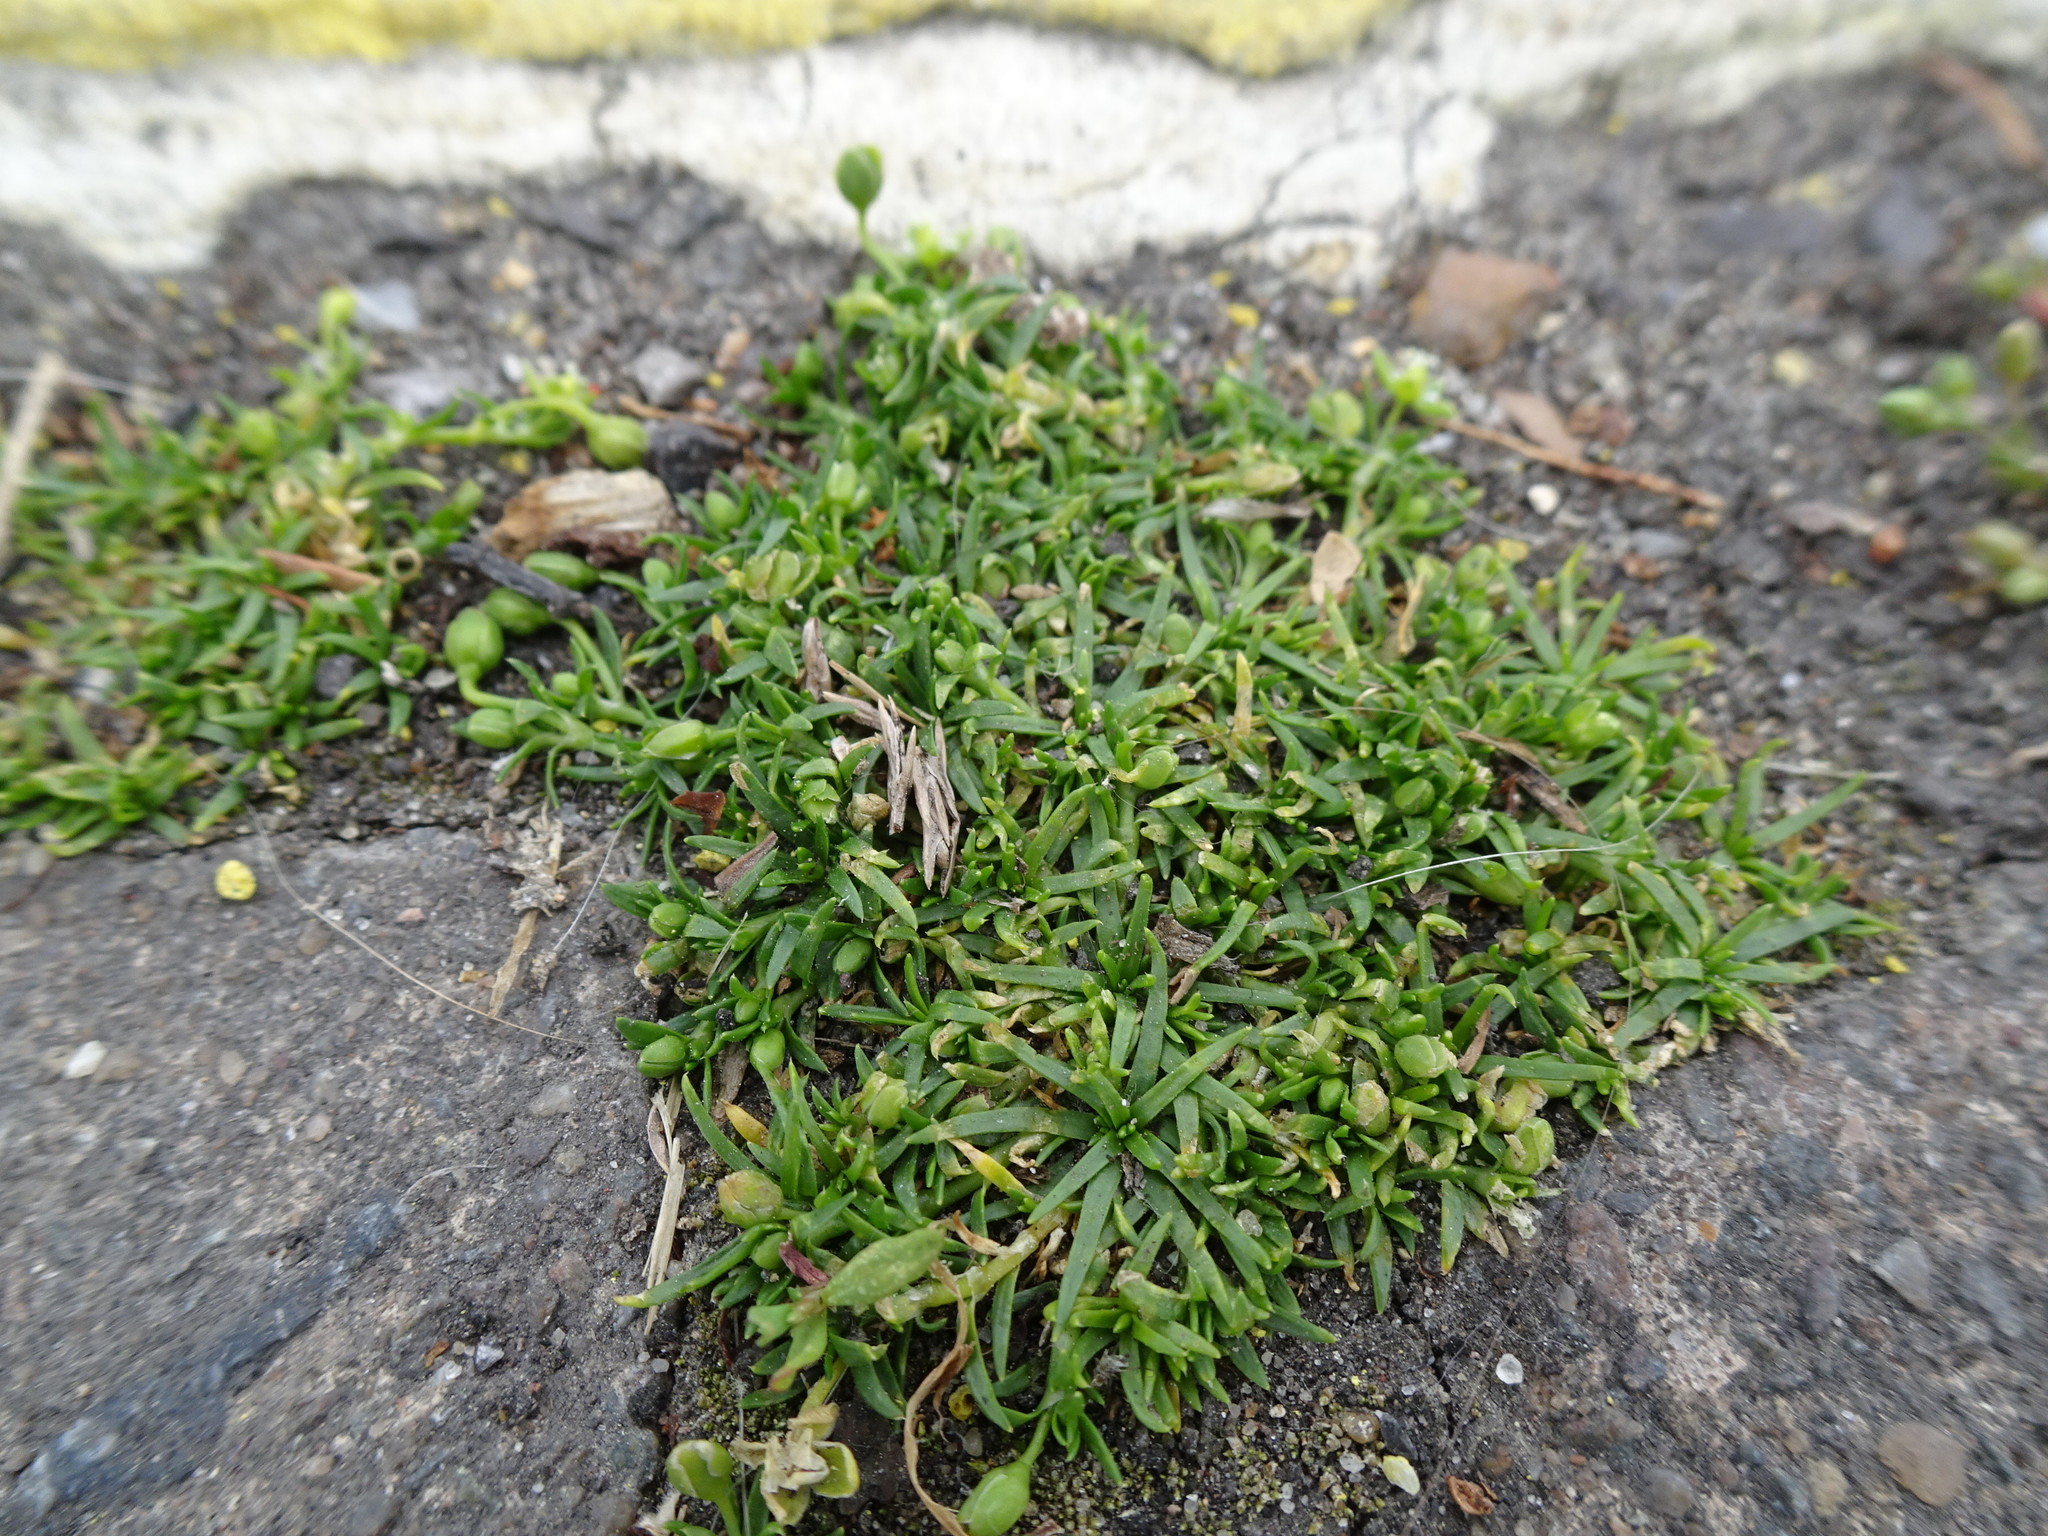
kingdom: Plantae
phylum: Tracheophyta
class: Magnoliopsida
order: Caryophyllales
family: Caryophyllaceae
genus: Sagina
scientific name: Sagina procumbens
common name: Procumbent pearlwort
